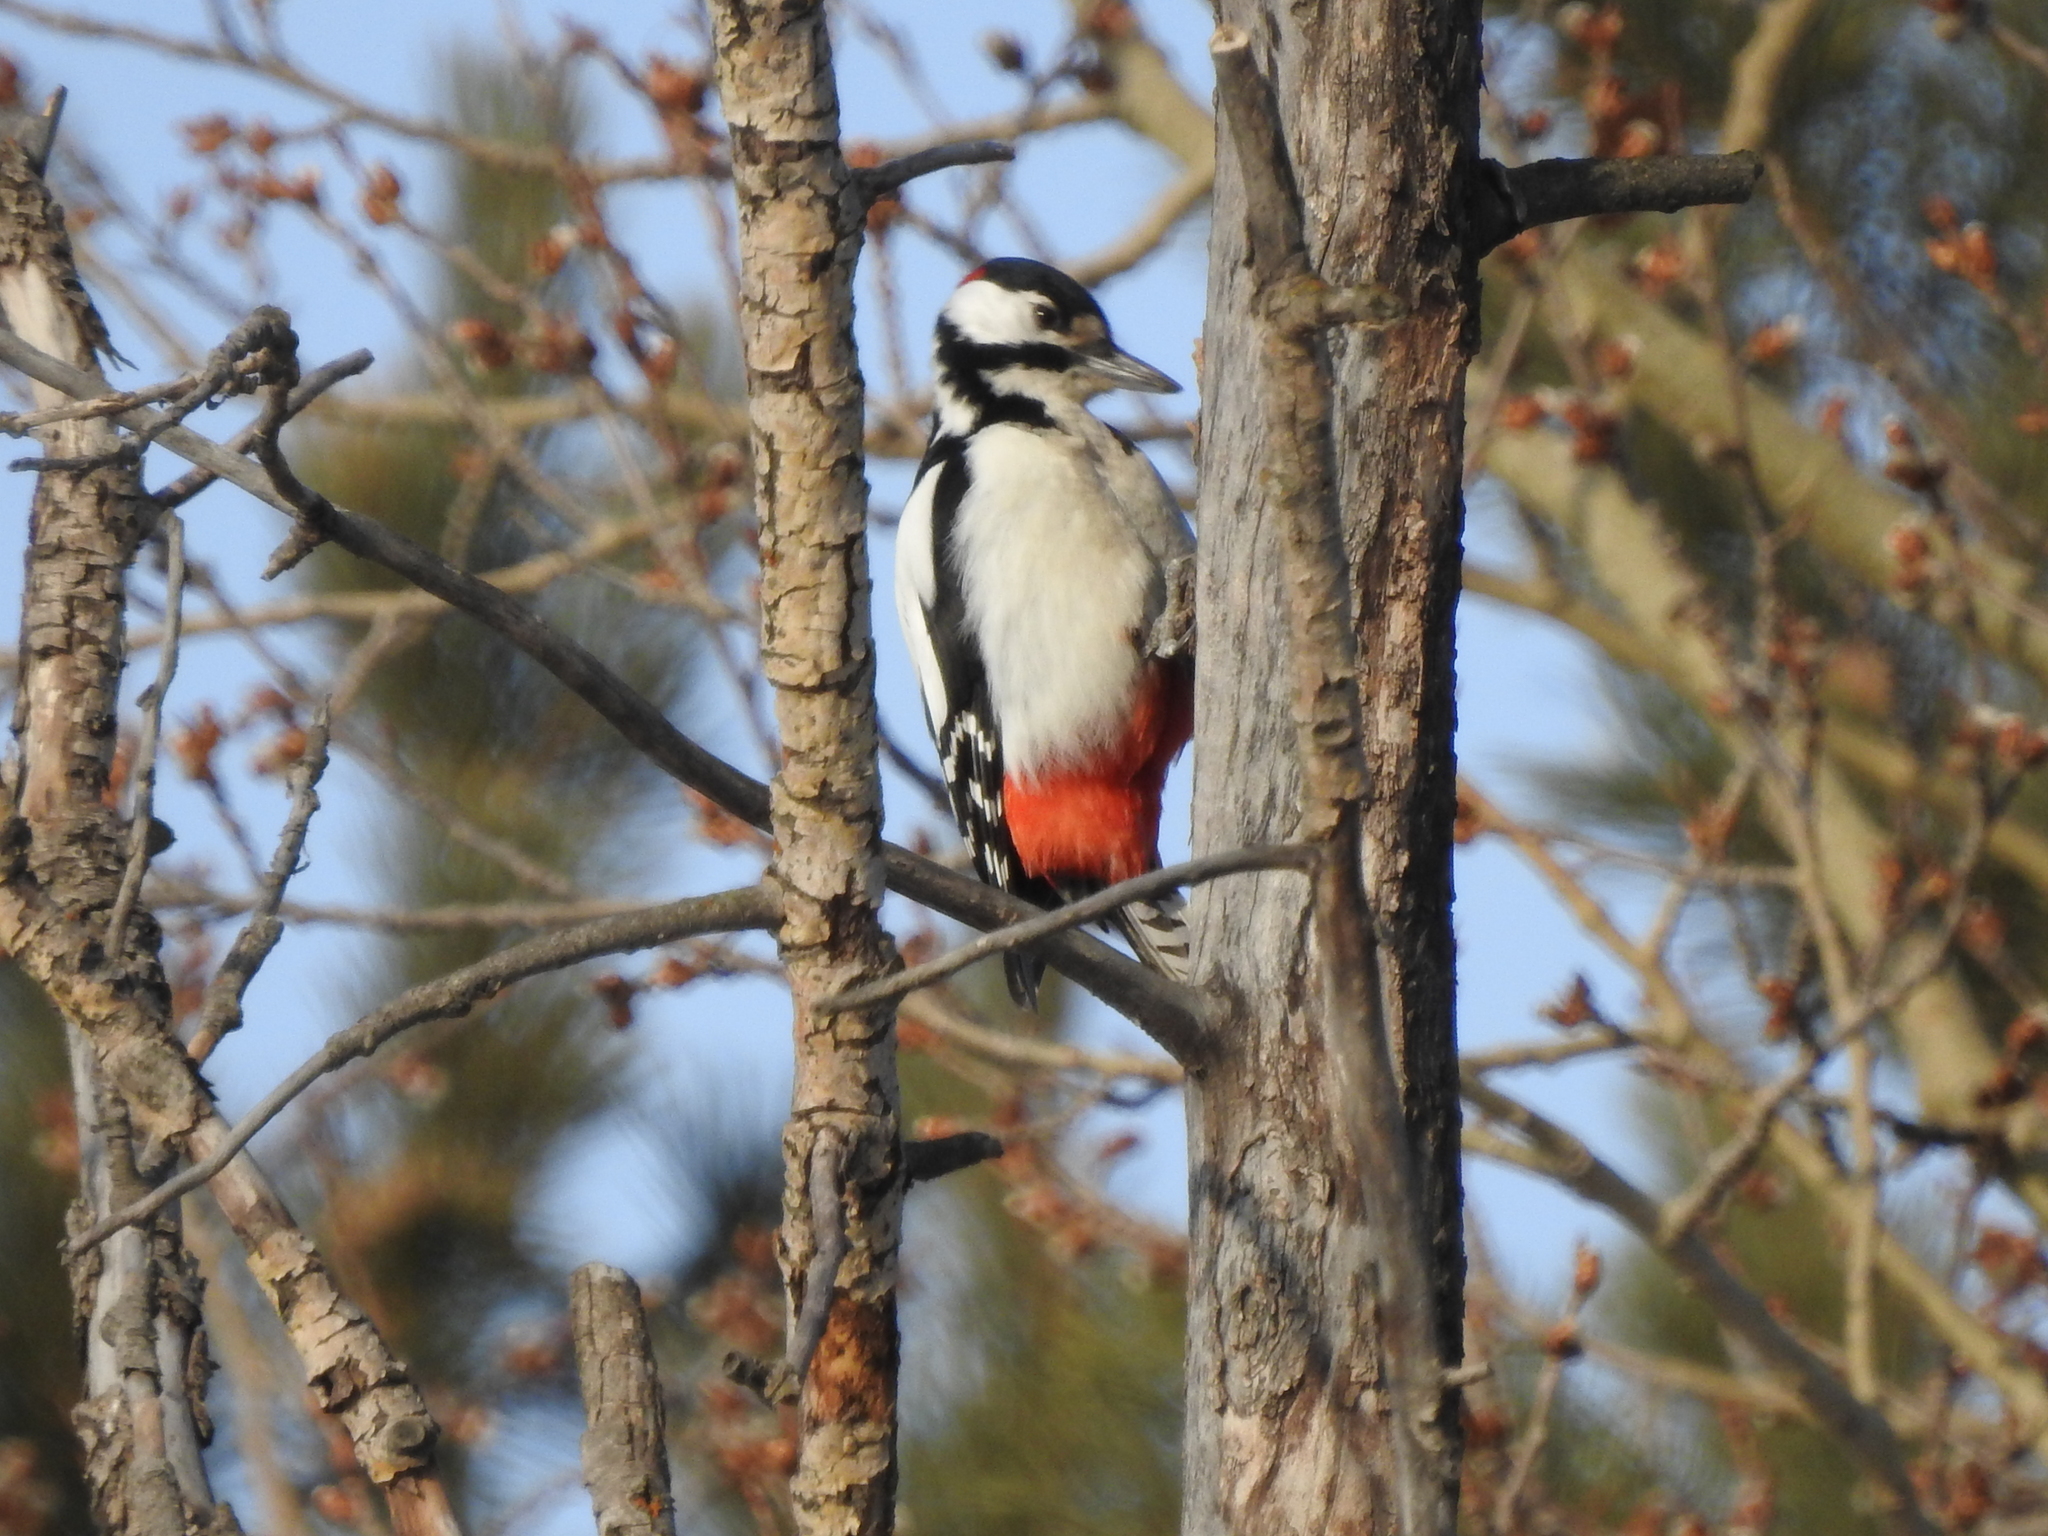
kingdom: Animalia
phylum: Chordata
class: Aves
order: Piciformes
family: Picidae
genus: Dendrocopos
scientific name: Dendrocopos major
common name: Great spotted woodpecker
